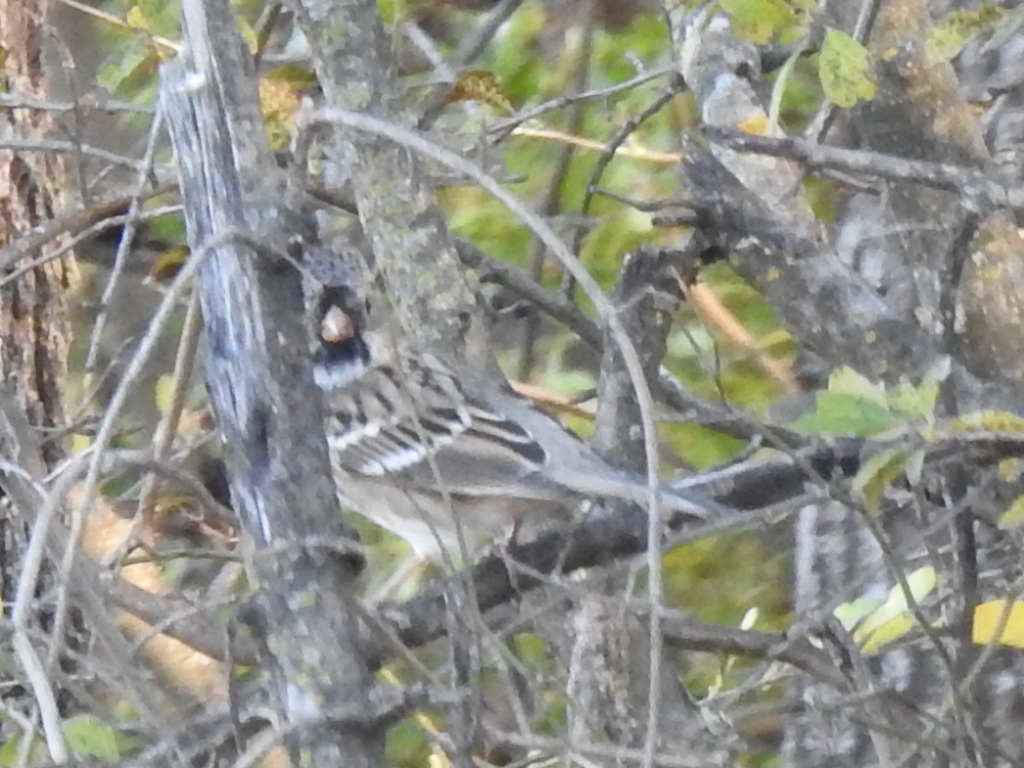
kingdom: Animalia
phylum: Chordata
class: Aves
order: Passeriformes
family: Passerellidae
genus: Zonotrichia
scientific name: Zonotrichia querula
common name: Harris's sparrow
